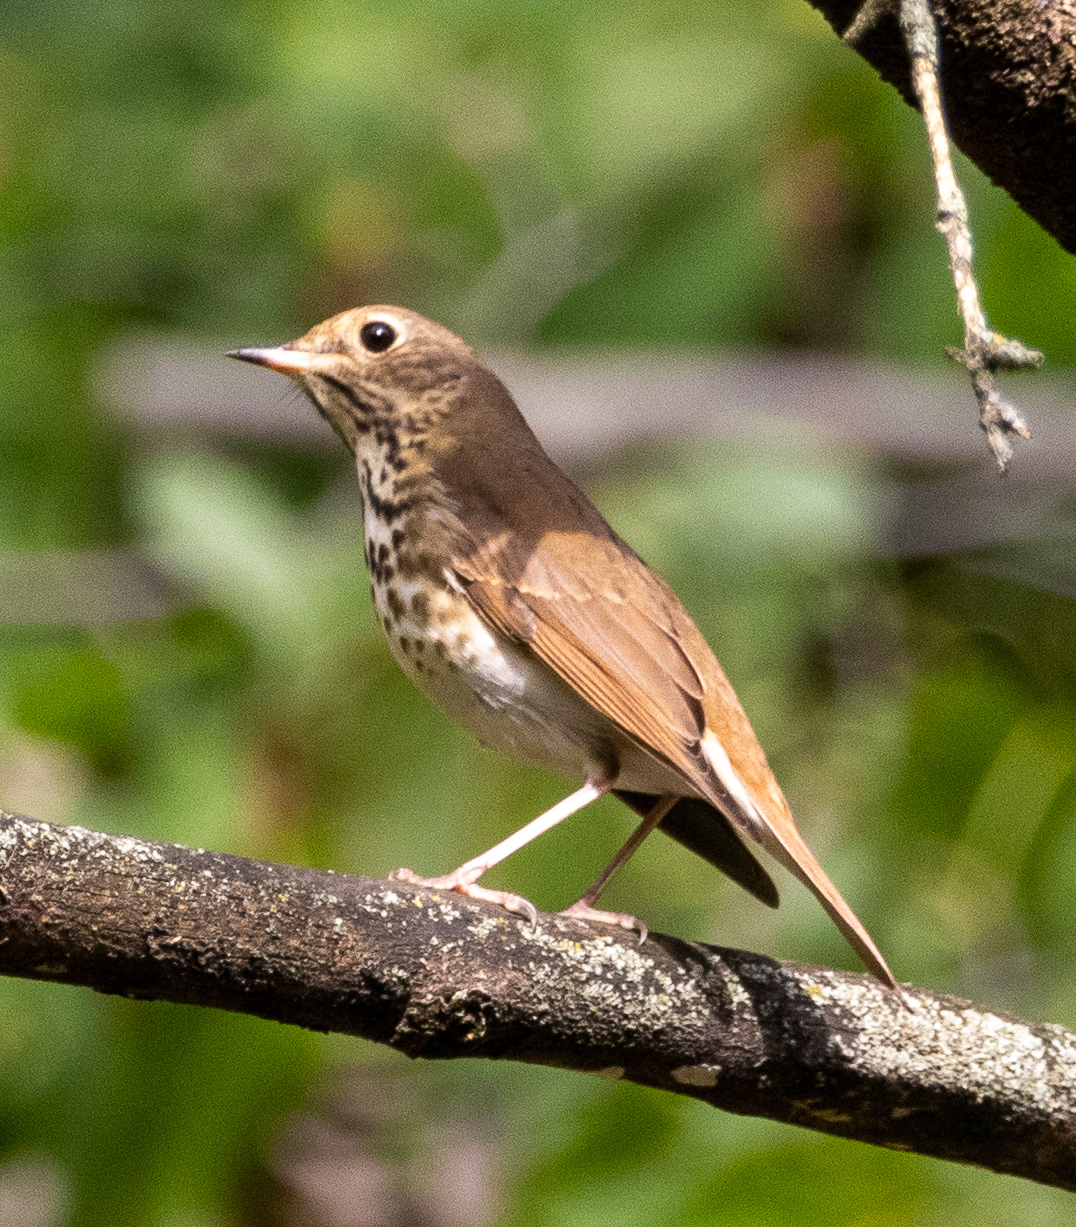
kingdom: Animalia
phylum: Chordata
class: Aves
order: Passeriformes
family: Turdidae
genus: Catharus
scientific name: Catharus guttatus
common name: Hermit thrush
